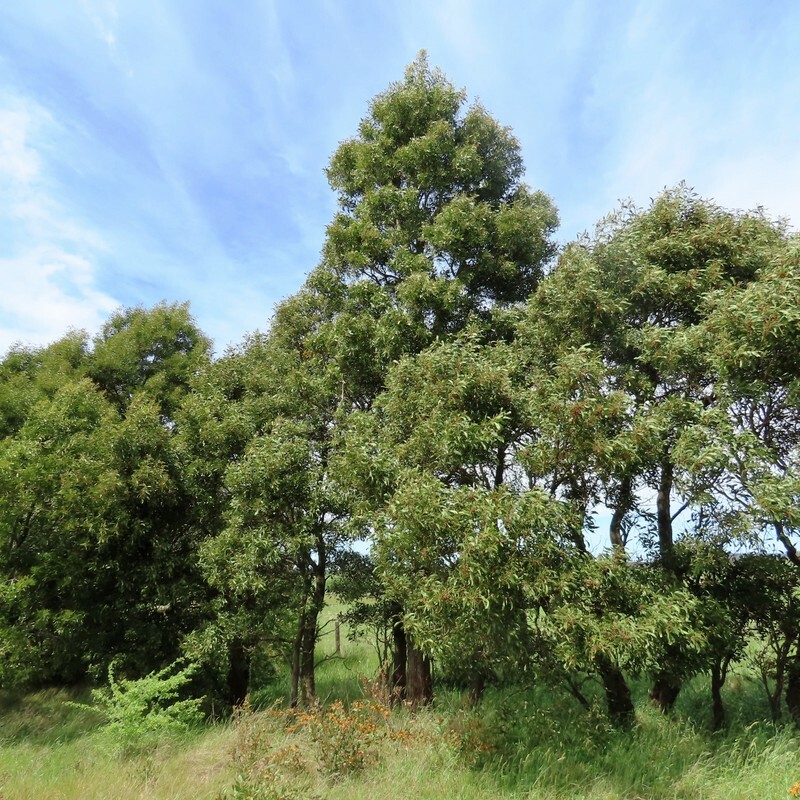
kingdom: Plantae
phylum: Tracheophyta
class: Magnoliopsida
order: Fabales
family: Fabaceae
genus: Acacia
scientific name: Acacia melanoxylon
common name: Blackwood
